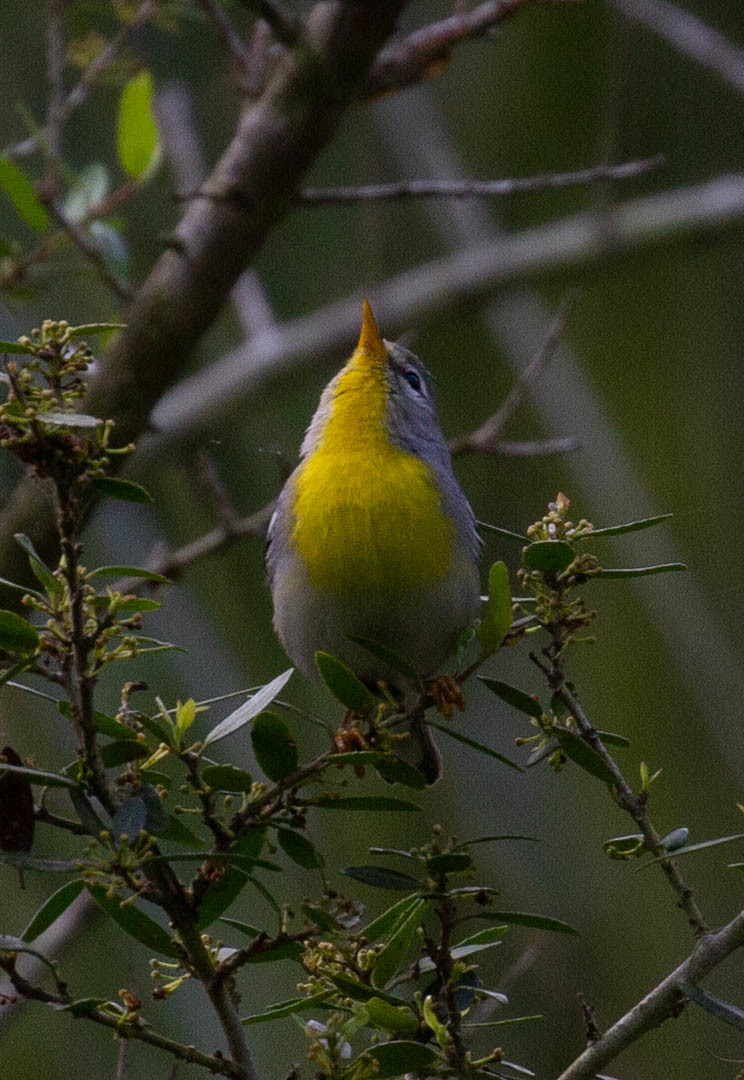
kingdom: Animalia
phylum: Chordata
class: Aves
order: Passeriformes
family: Parulidae
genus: Setophaga
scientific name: Setophaga americana
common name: Northern parula
